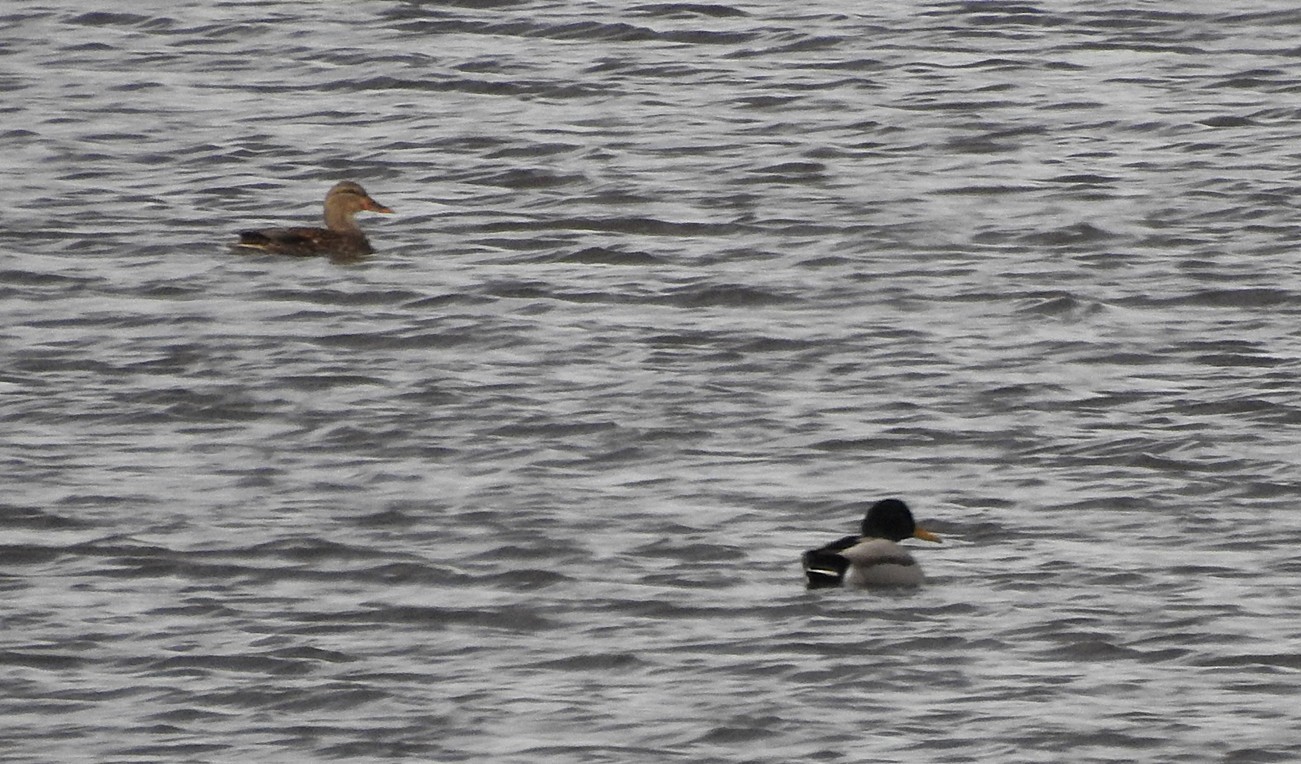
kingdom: Animalia
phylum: Chordata
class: Aves
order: Anseriformes
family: Anatidae
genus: Anas
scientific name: Anas platyrhynchos
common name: Mallard
